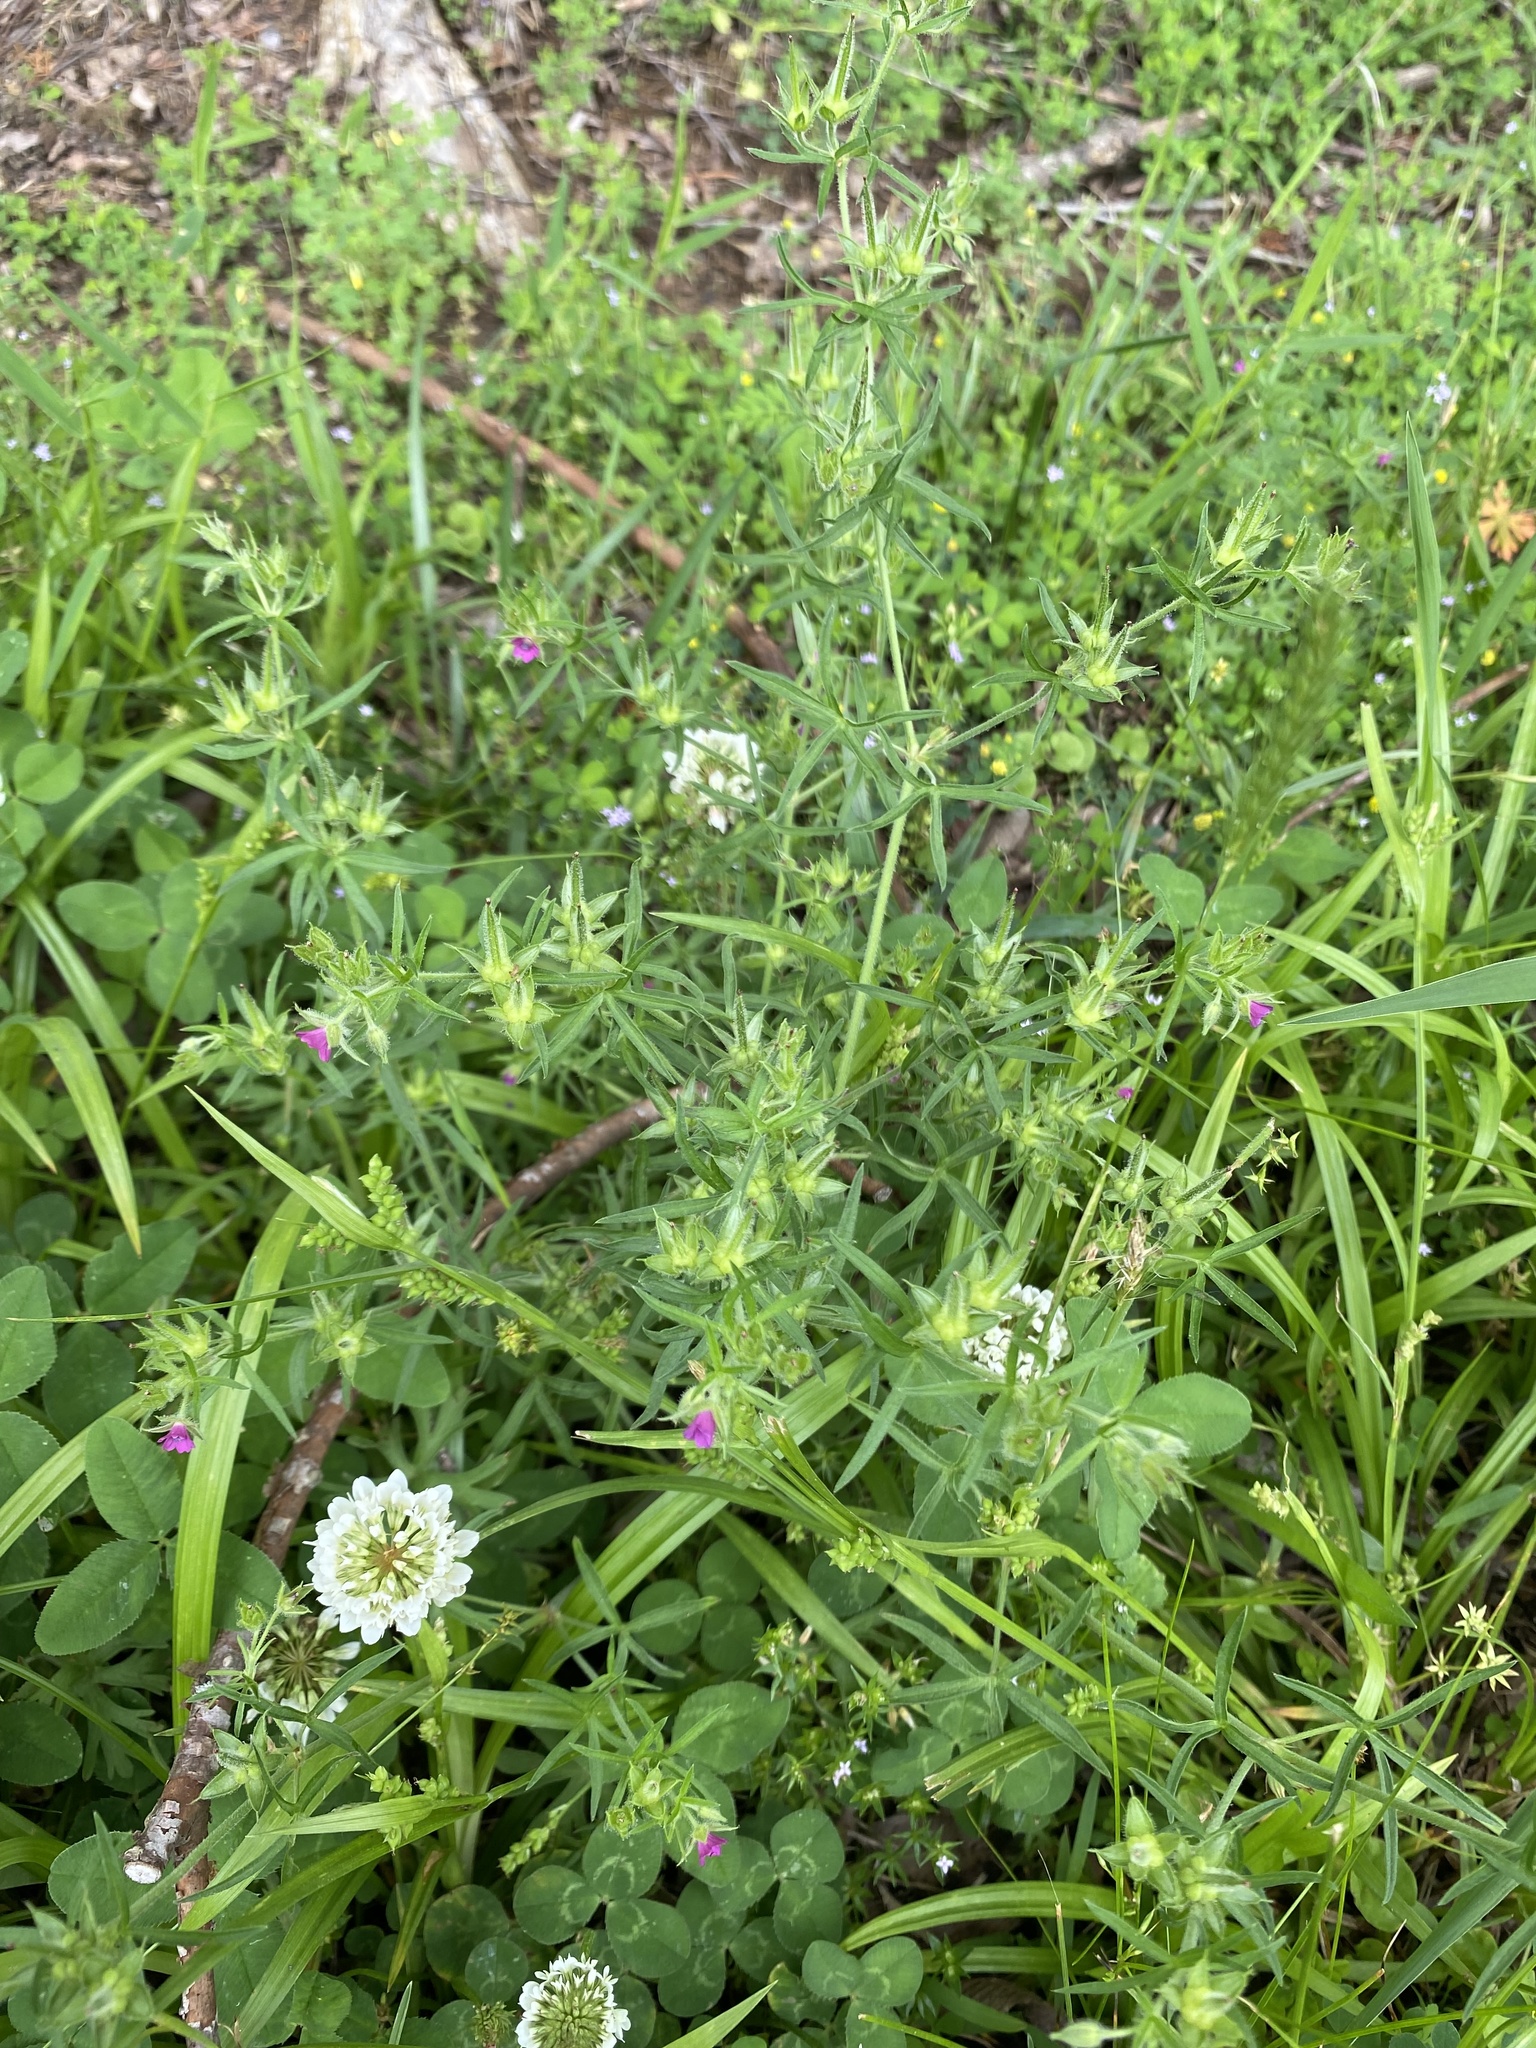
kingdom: Plantae
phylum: Tracheophyta
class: Magnoliopsida
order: Geraniales
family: Geraniaceae
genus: Geranium
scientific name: Geranium dissectum
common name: Cut-leaved crane's-bill
